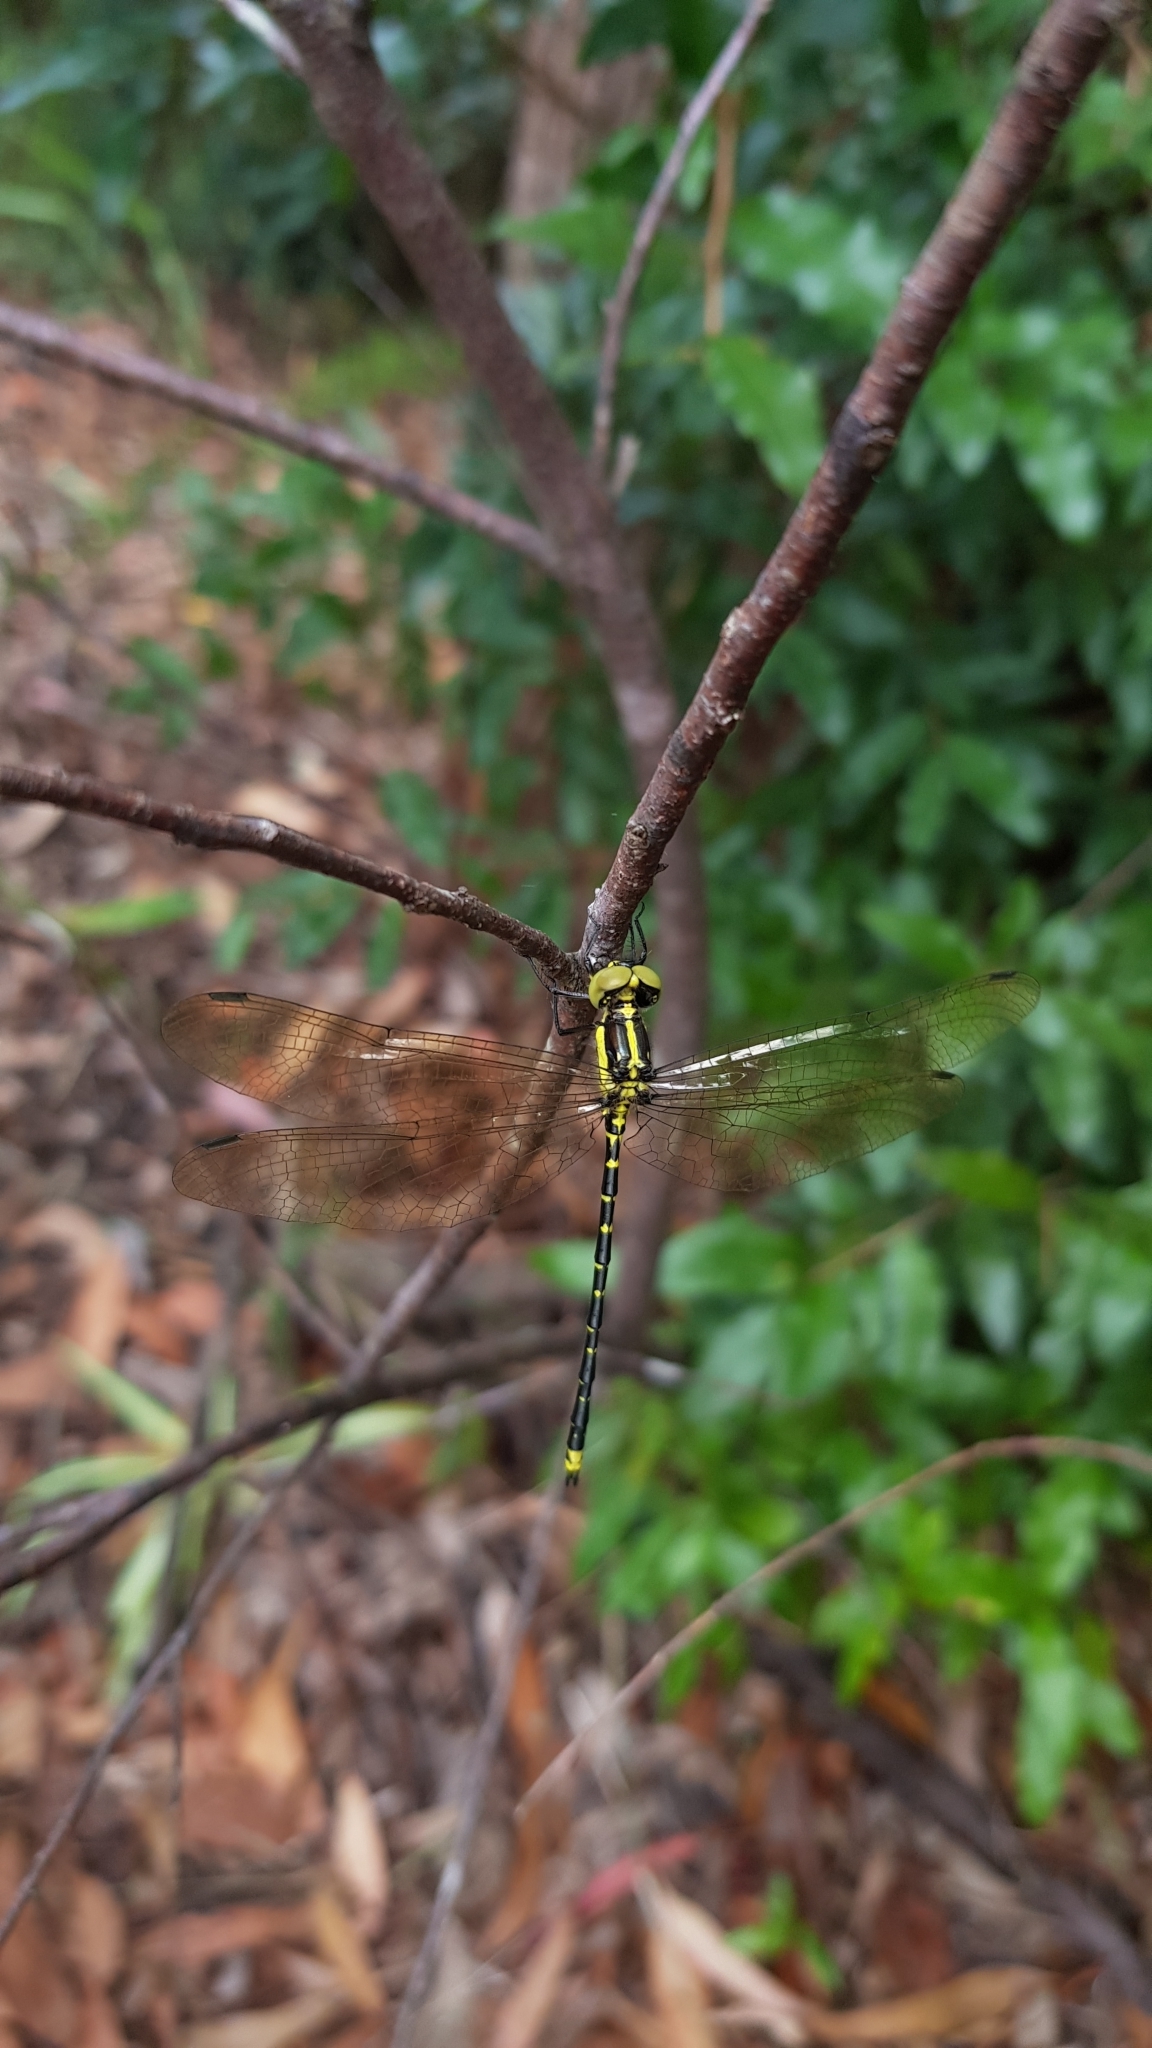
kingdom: Animalia
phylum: Arthropoda
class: Insecta
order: Odonata
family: Synthemistidae
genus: Choristhemis
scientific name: Choristhemis flavoterminata
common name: Yellow-tipped tigertail
